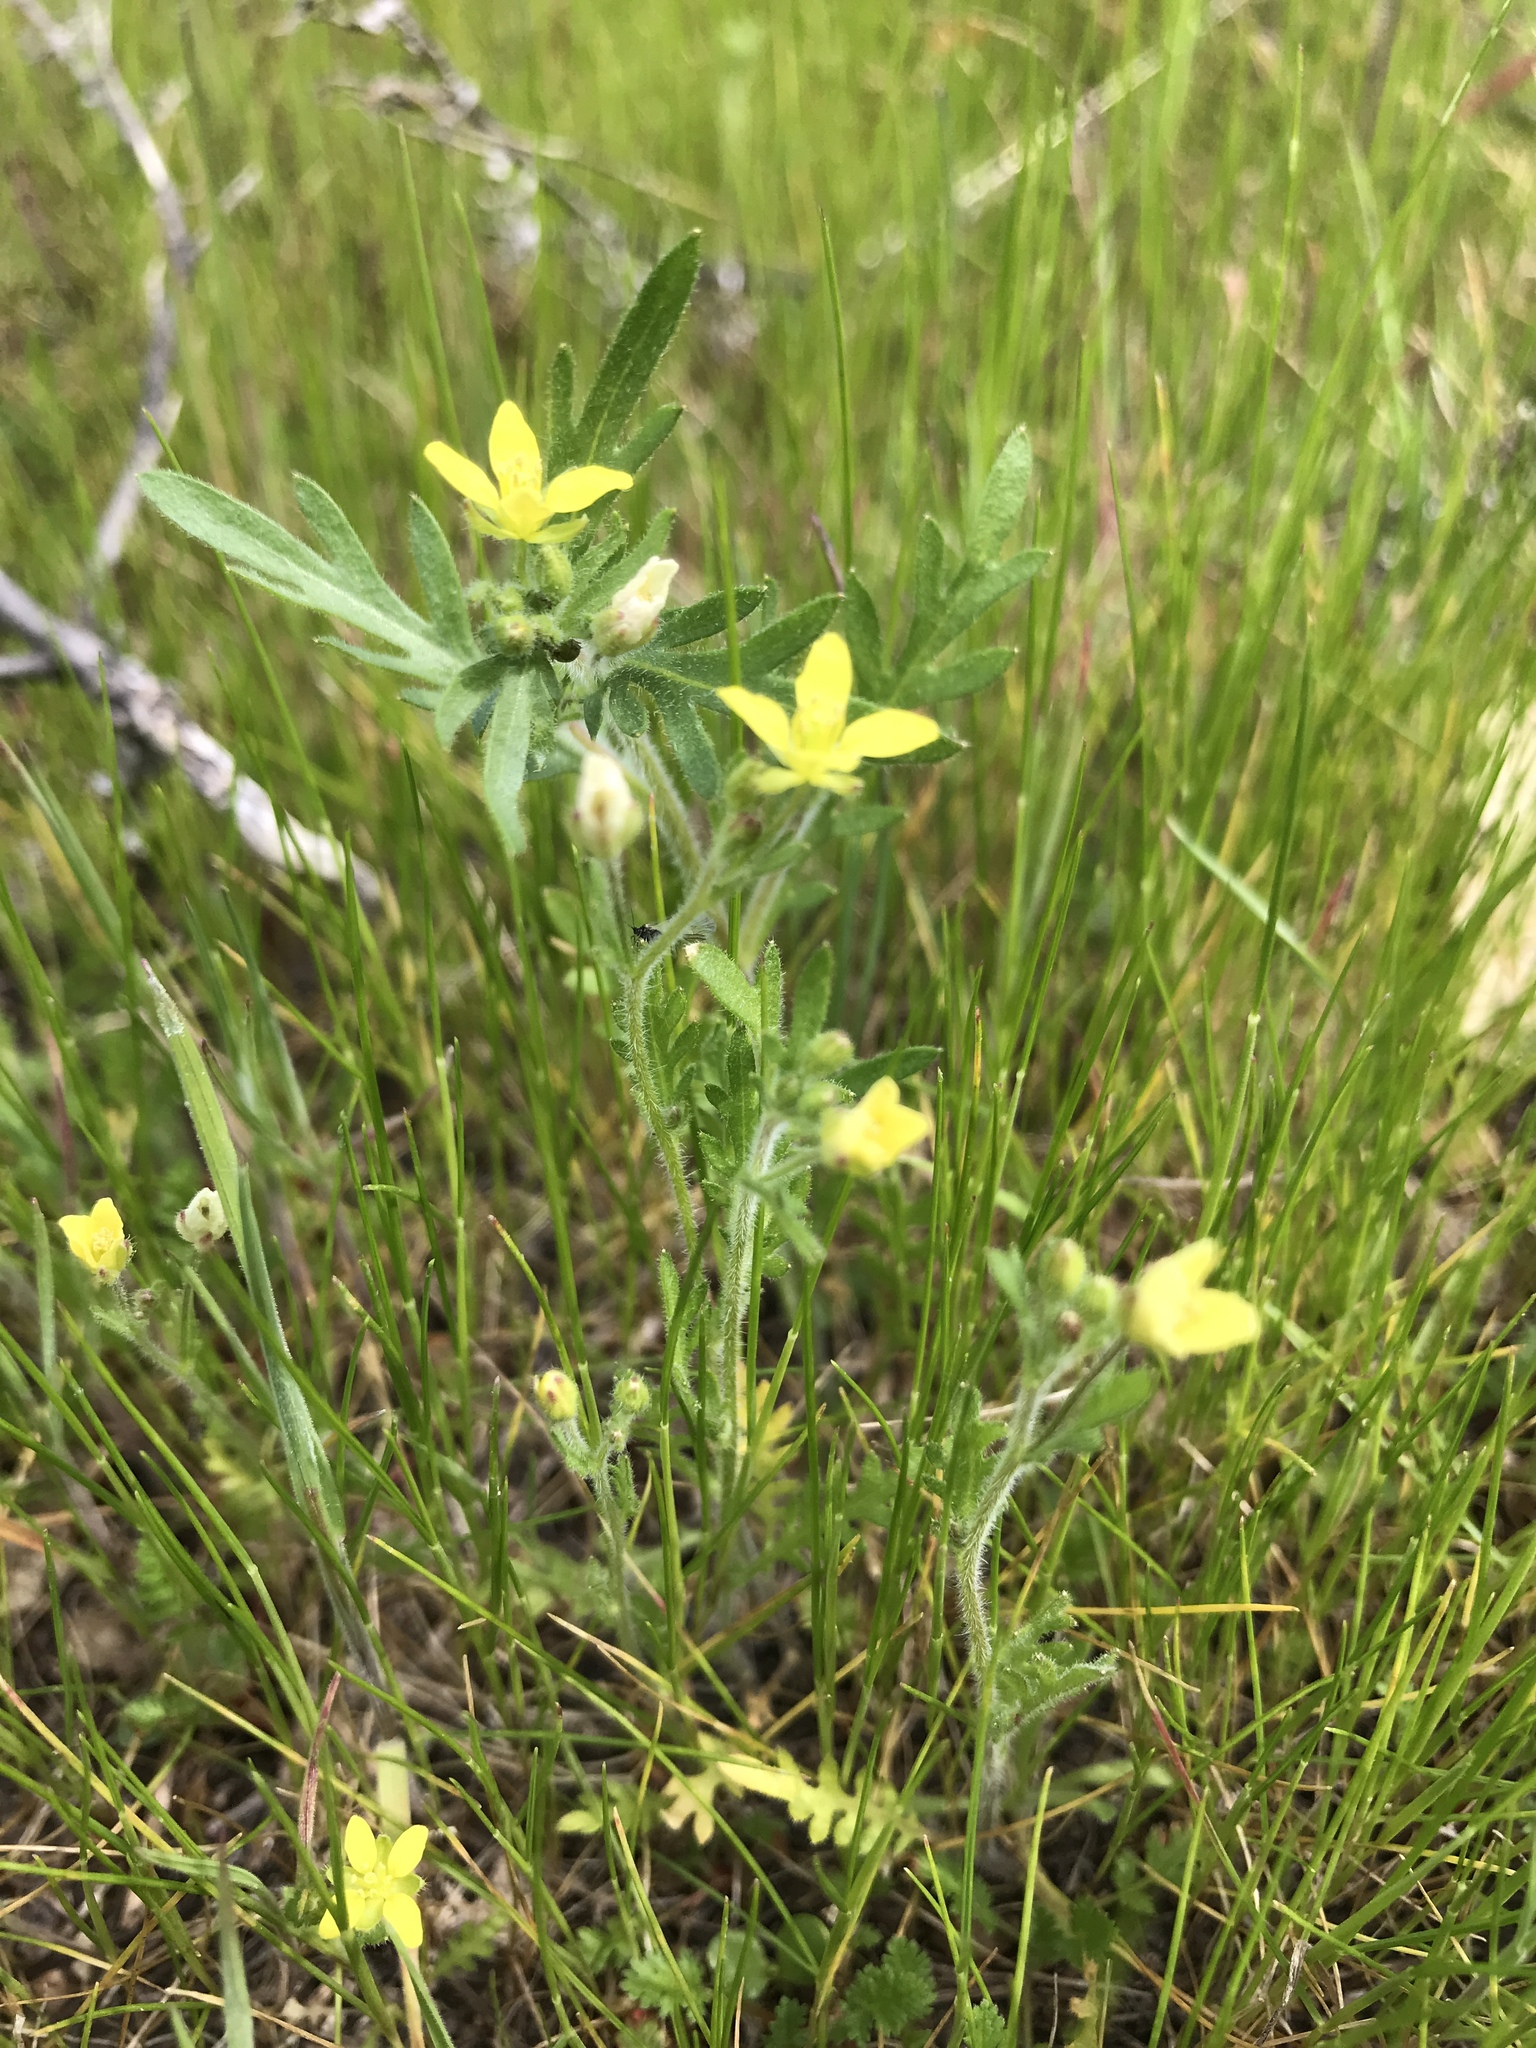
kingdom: Plantae
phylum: Tracheophyta
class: Magnoliopsida
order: Brassicales
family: Brassicaceae
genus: Tropidocarpum
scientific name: Tropidocarpum gracile
